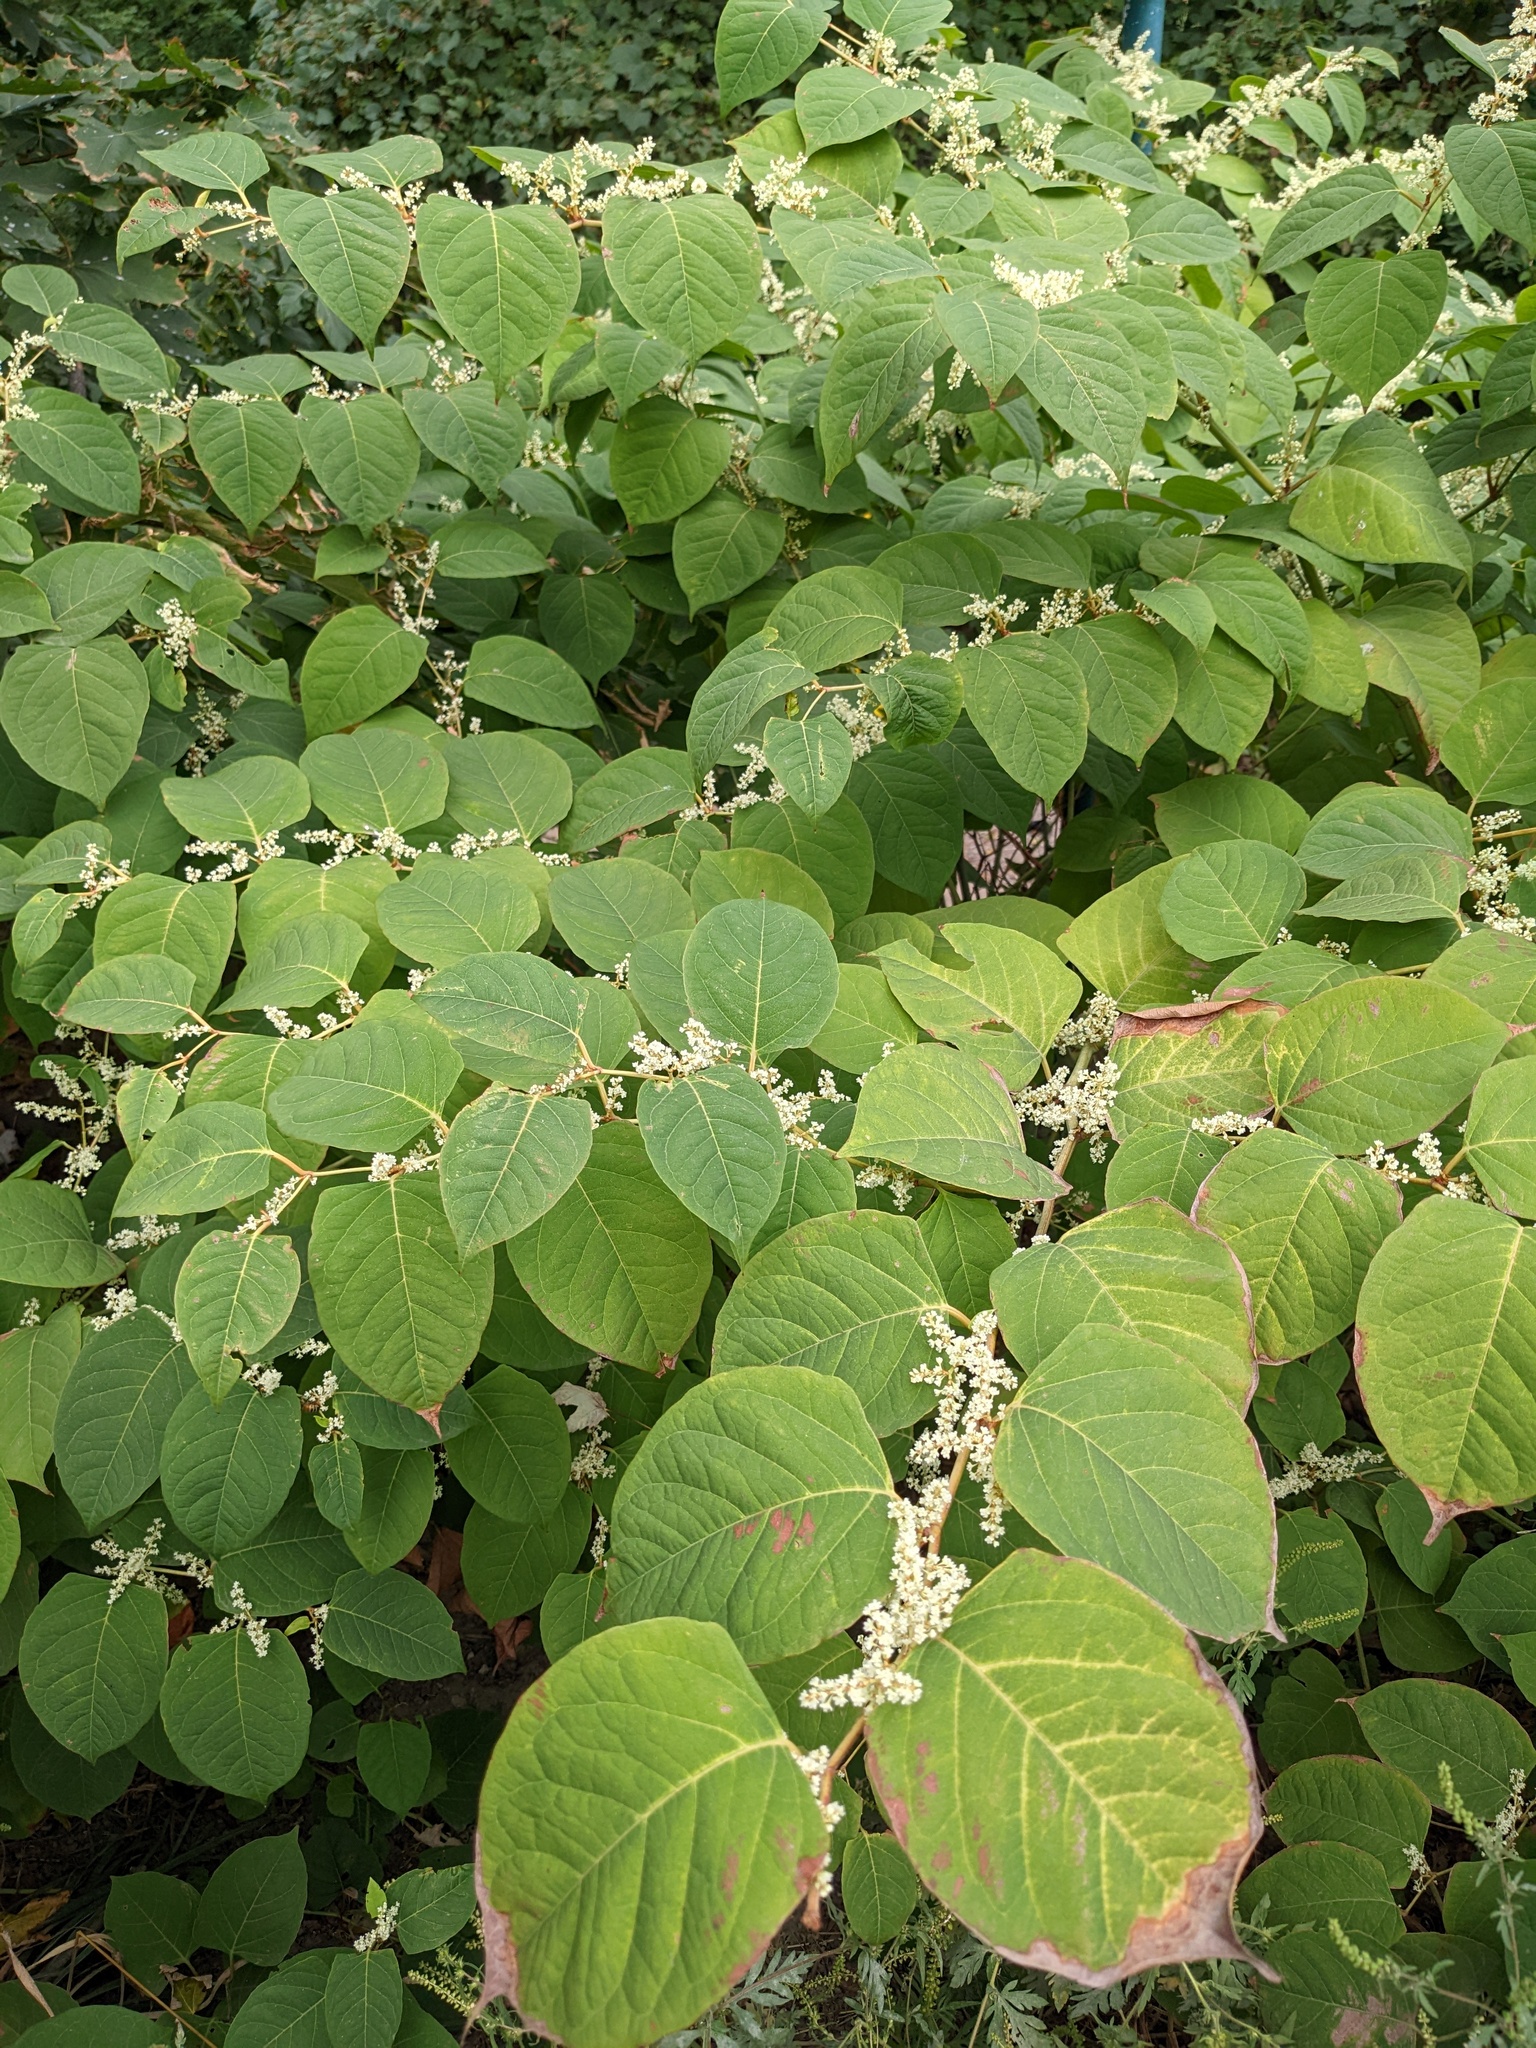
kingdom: Plantae
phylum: Tracheophyta
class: Magnoliopsida
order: Caryophyllales
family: Polygonaceae
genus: Reynoutria
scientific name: Reynoutria japonica
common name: Japanese knotweed
